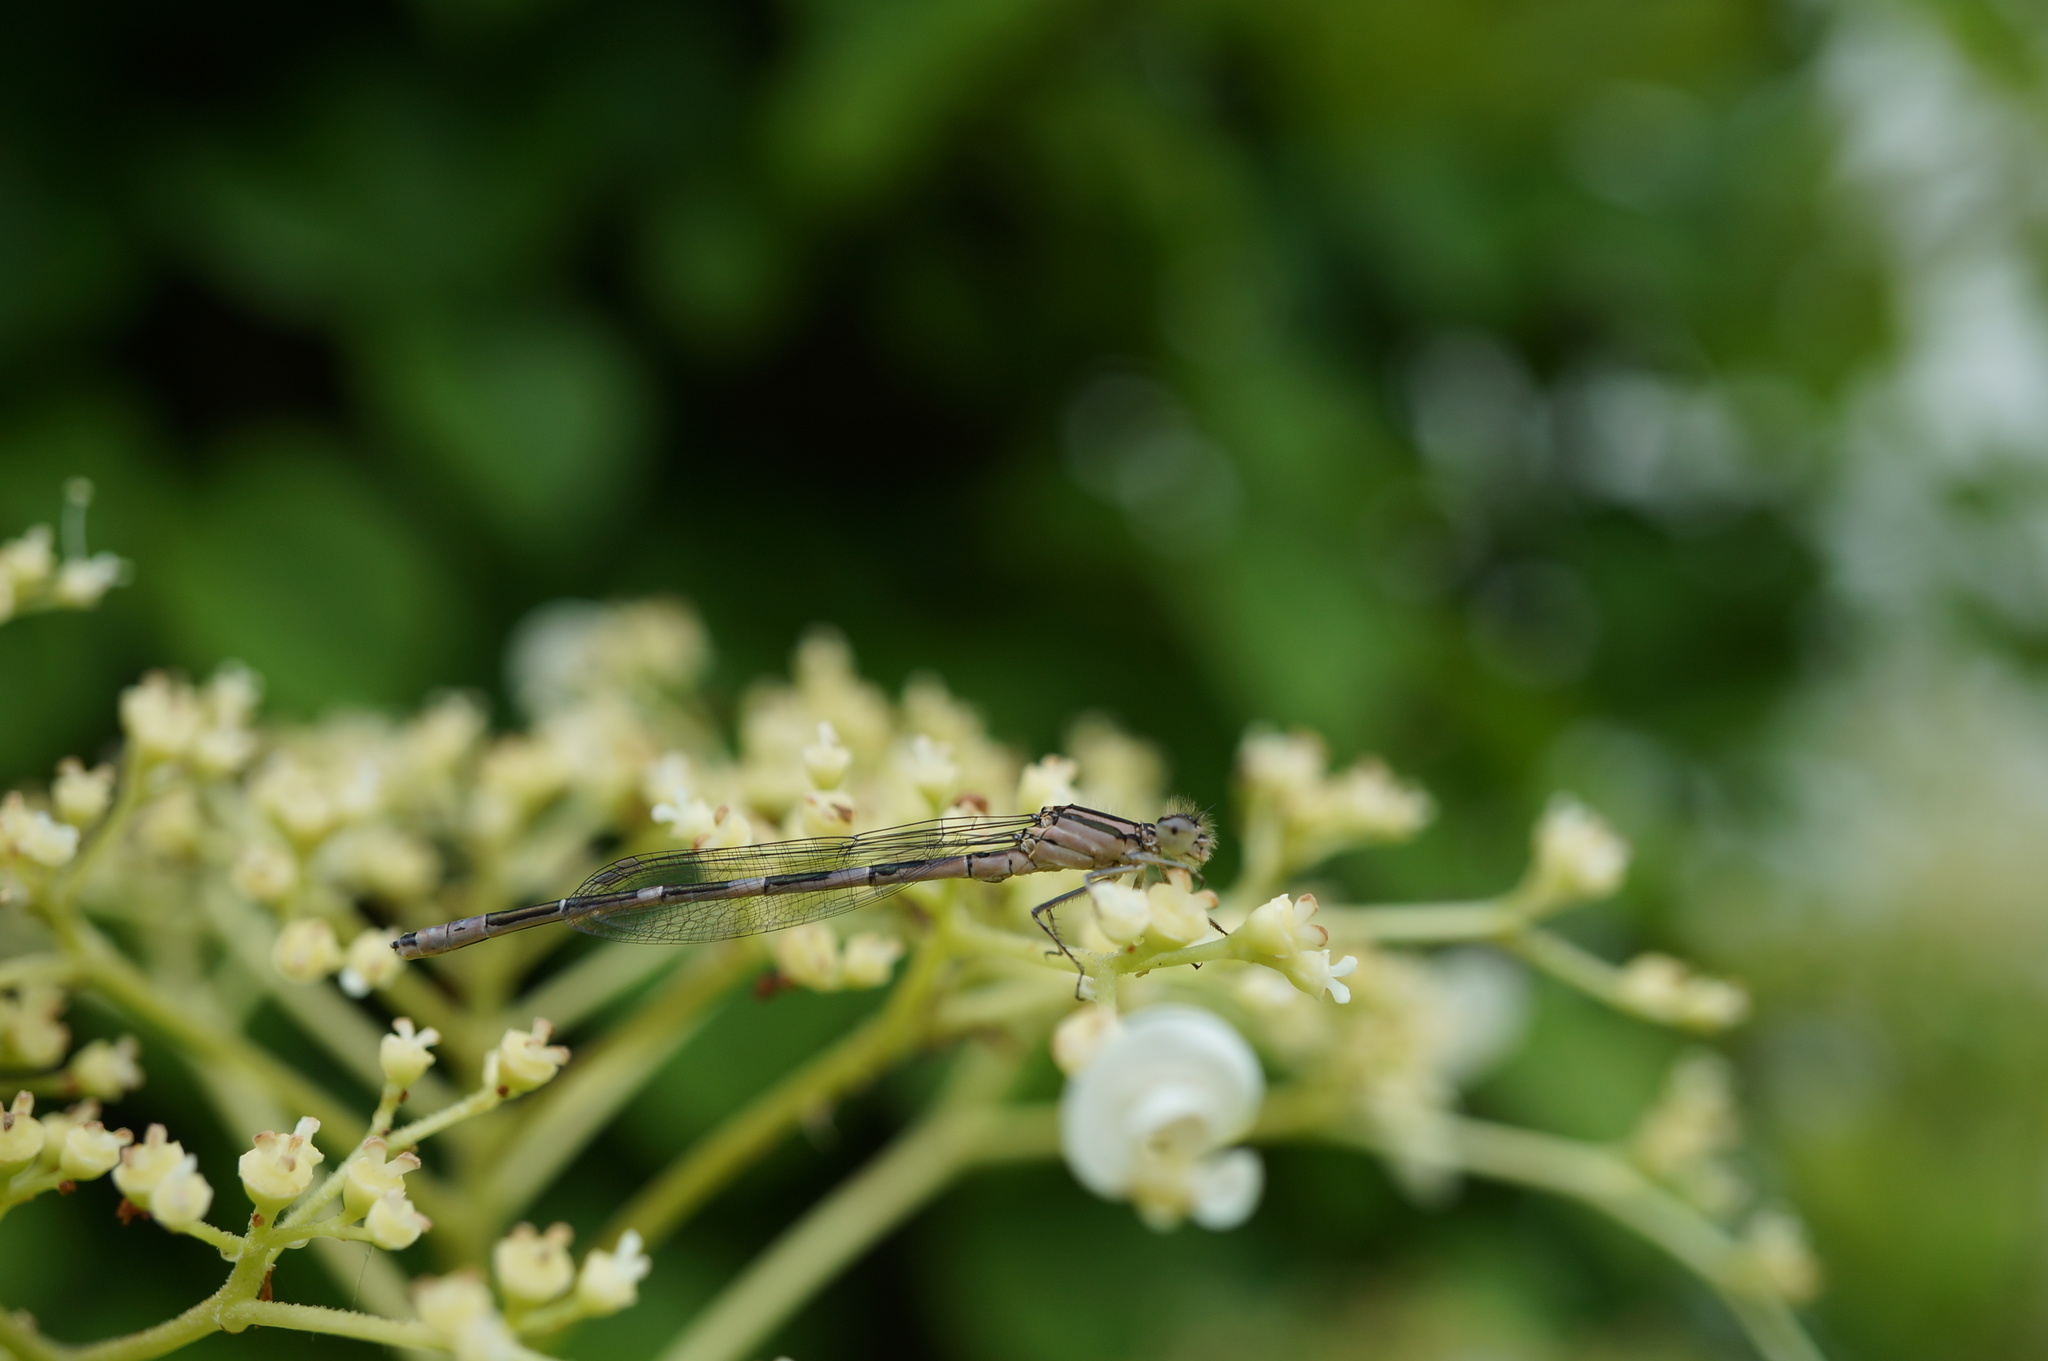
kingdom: Animalia
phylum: Arthropoda
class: Insecta
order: Odonata
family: Coenagrionidae
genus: Enallagma
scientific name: Enallagma carunculatum
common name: Tule bluet
